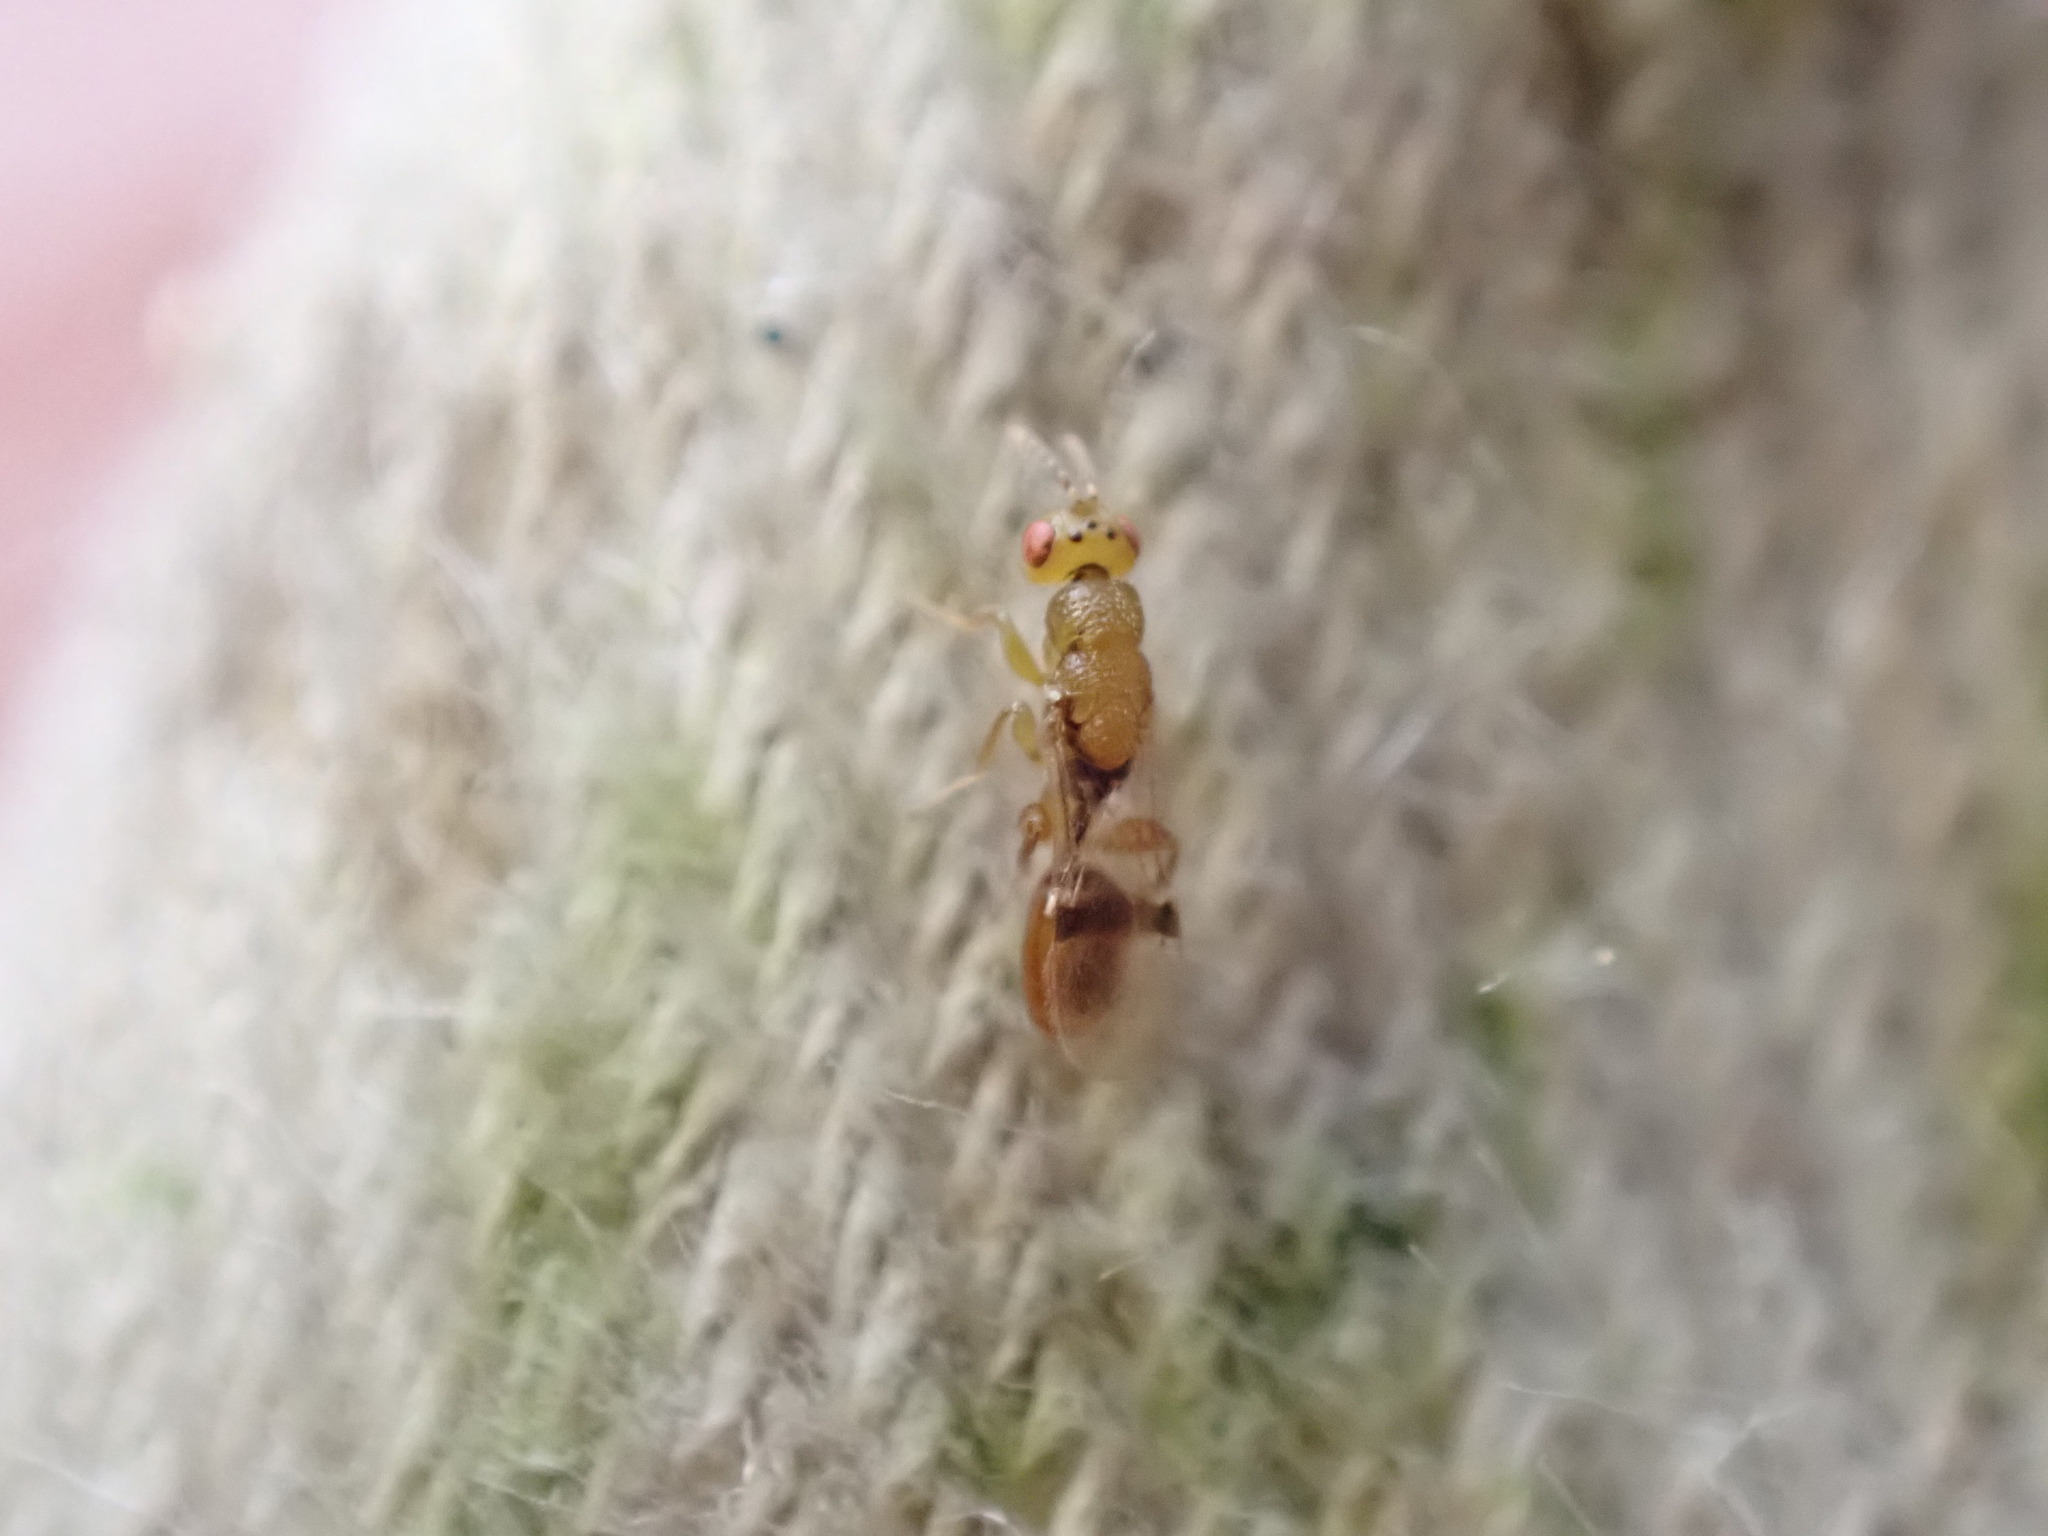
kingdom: Animalia
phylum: Arthropoda
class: Insecta
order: Hymenoptera
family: Eurytomidae
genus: Sycophila
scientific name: Sycophila
